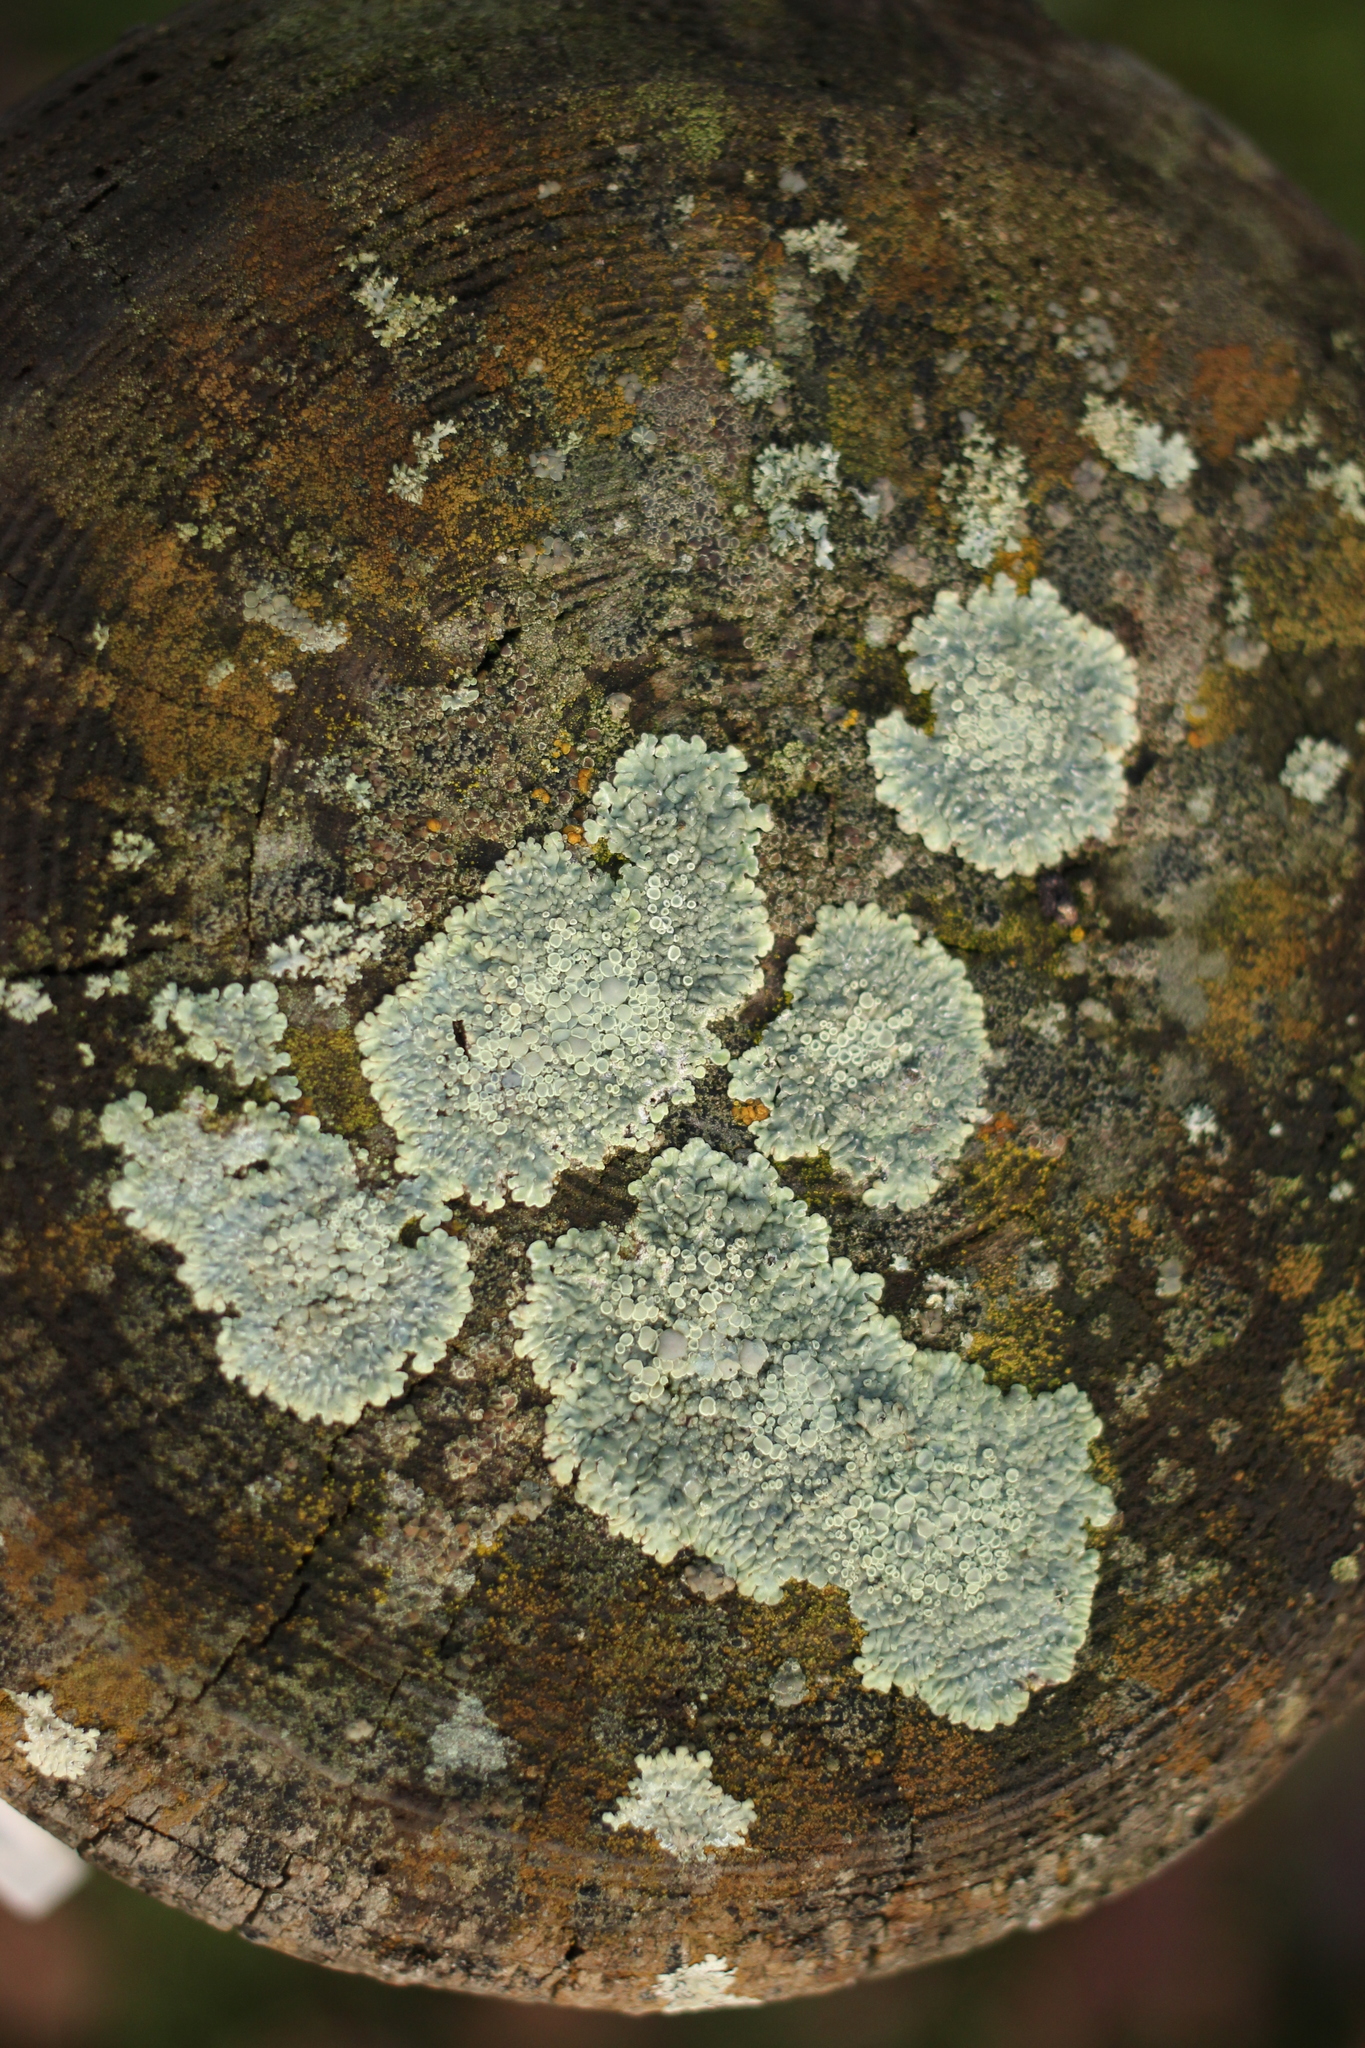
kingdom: Fungi
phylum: Ascomycota
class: Lecanoromycetes
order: Lecanorales
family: Lecanoraceae
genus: Protoparmeliopsis
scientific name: Protoparmeliopsis muralis
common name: Stonewall rim lichen
